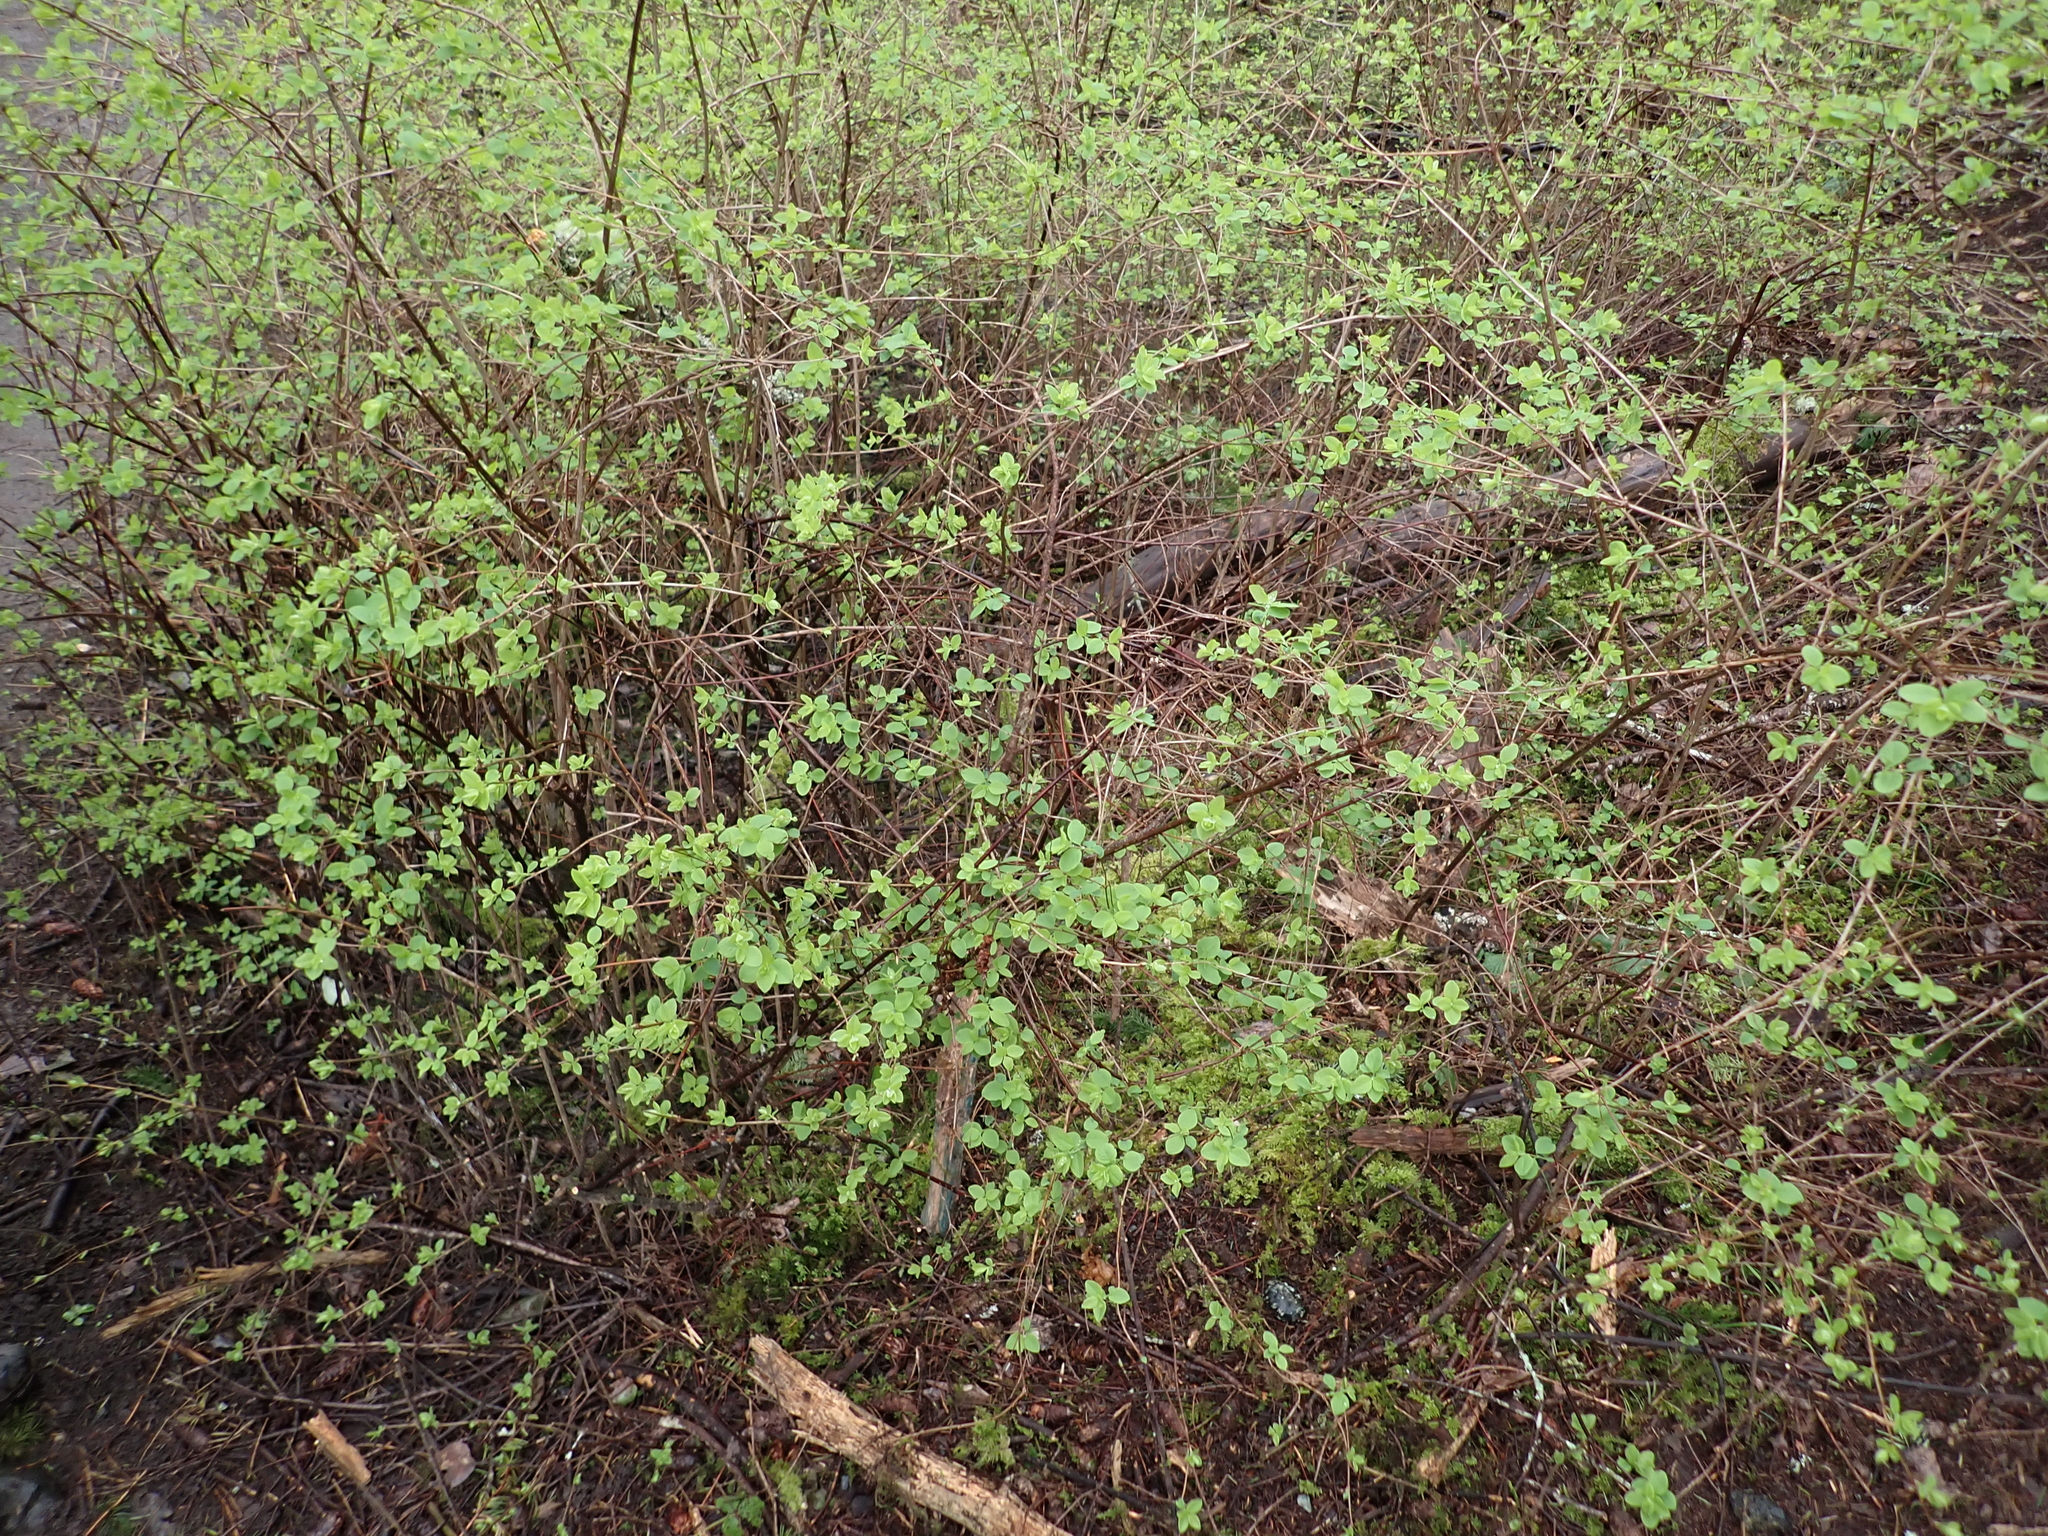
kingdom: Plantae
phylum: Tracheophyta
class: Magnoliopsida
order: Dipsacales
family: Caprifoliaceae
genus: Symphoricarpos
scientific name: Symphoricarpos albus
